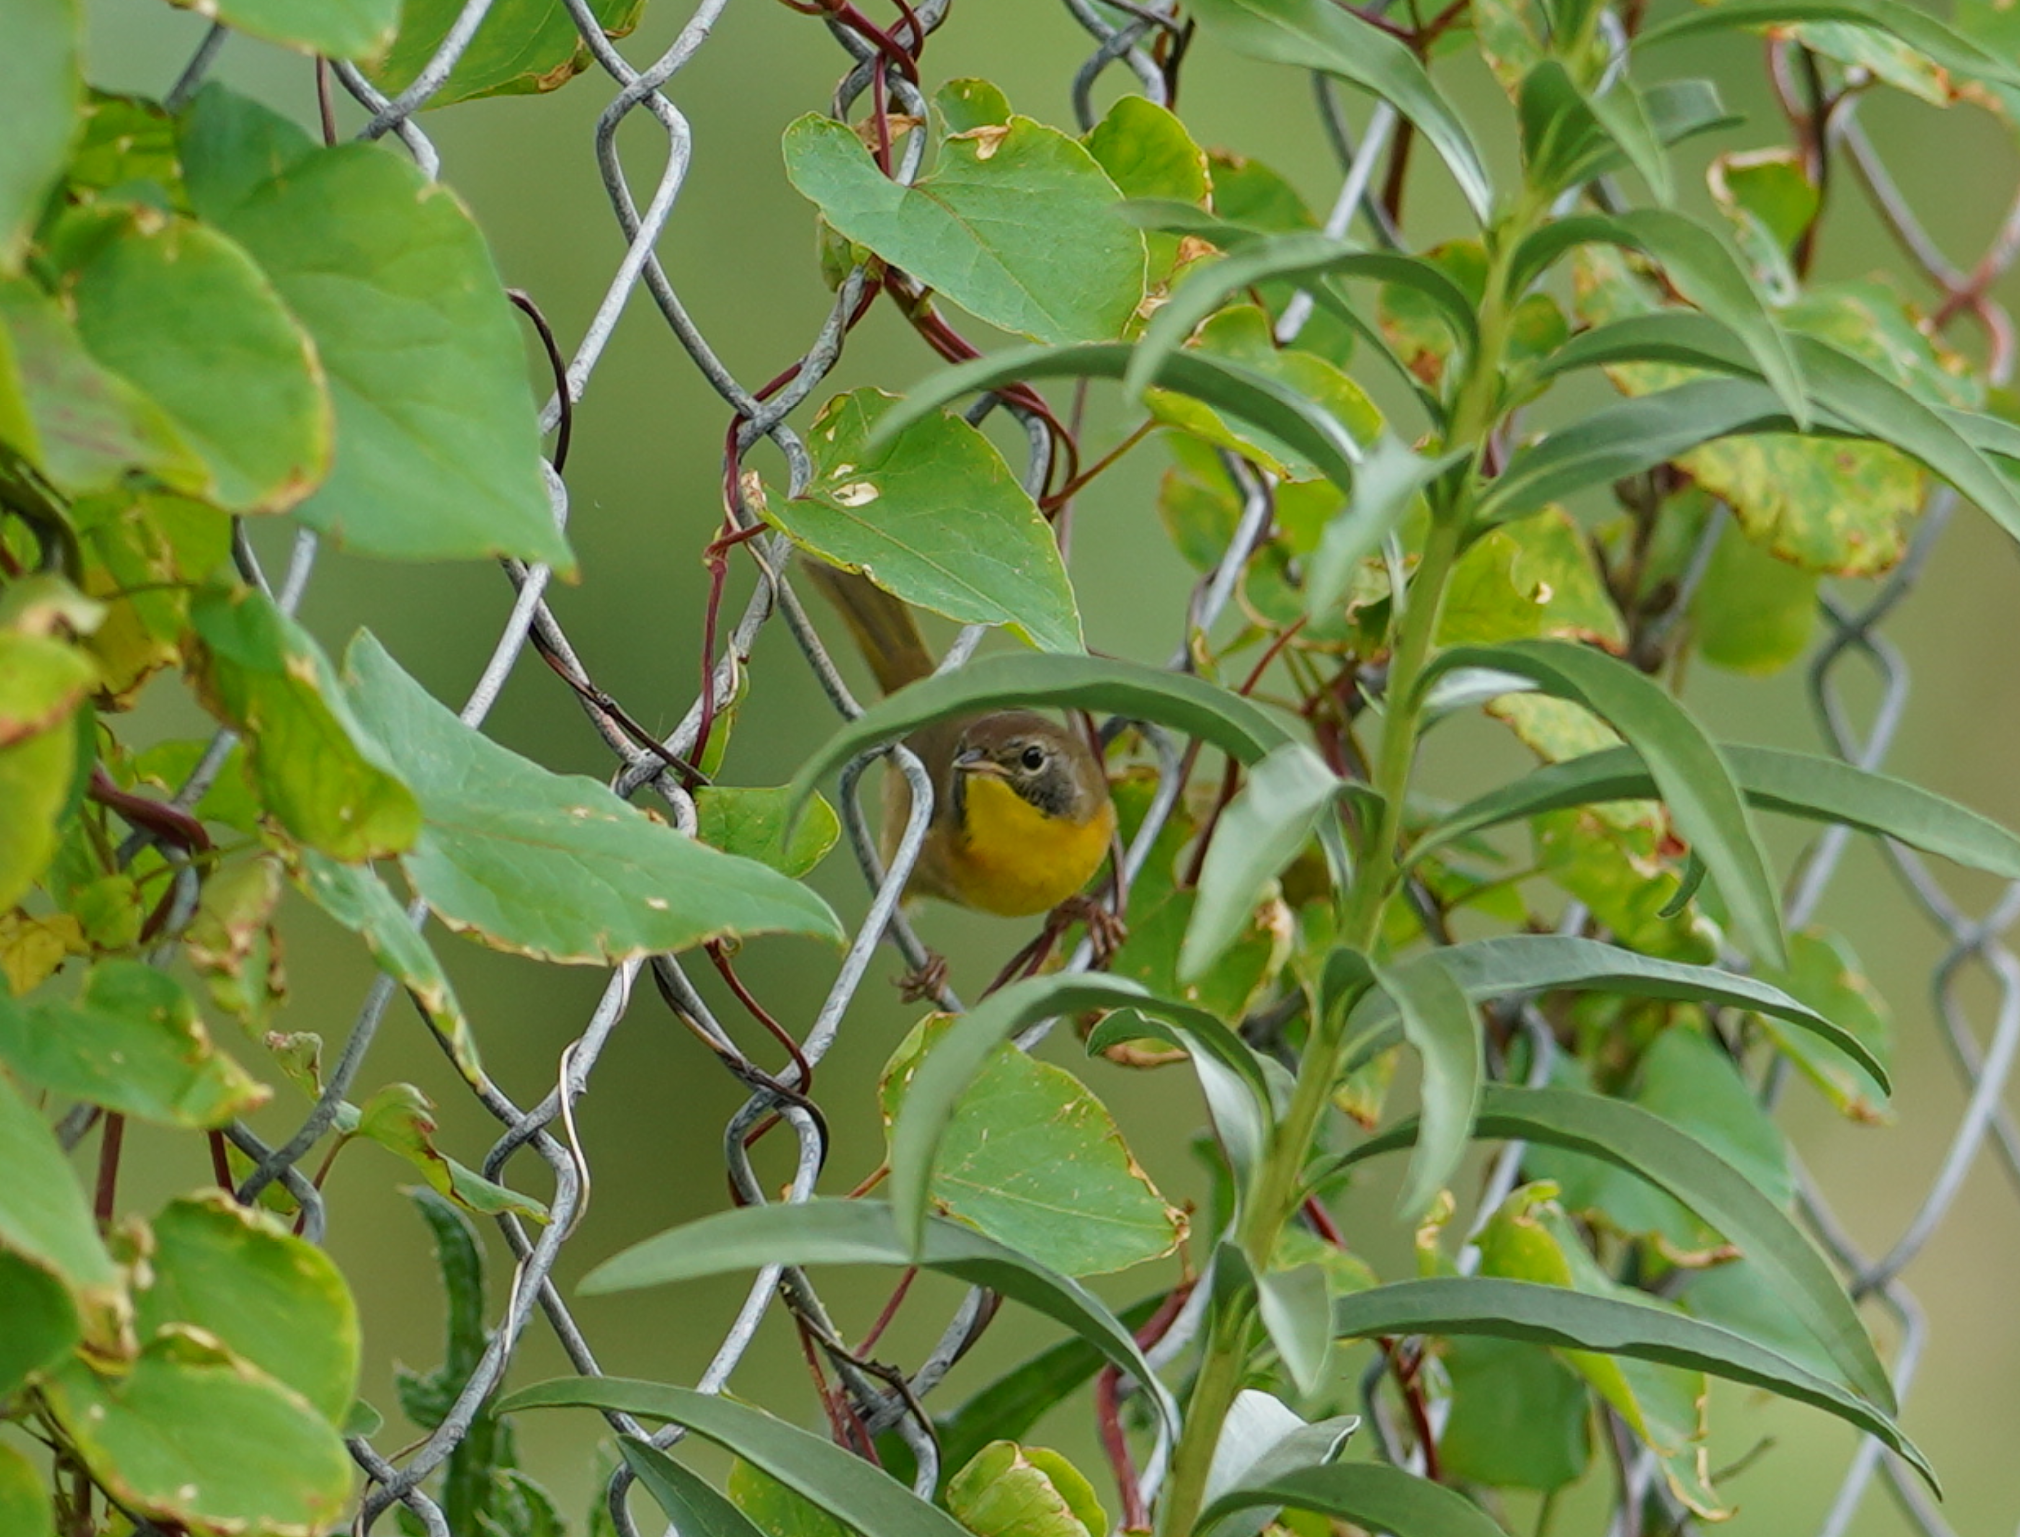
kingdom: Animalia
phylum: Chordata
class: Aves
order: Passeriformes
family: Parulidae
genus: Geothlypis
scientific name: Geothlypis trichas
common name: Common yellowthroat
